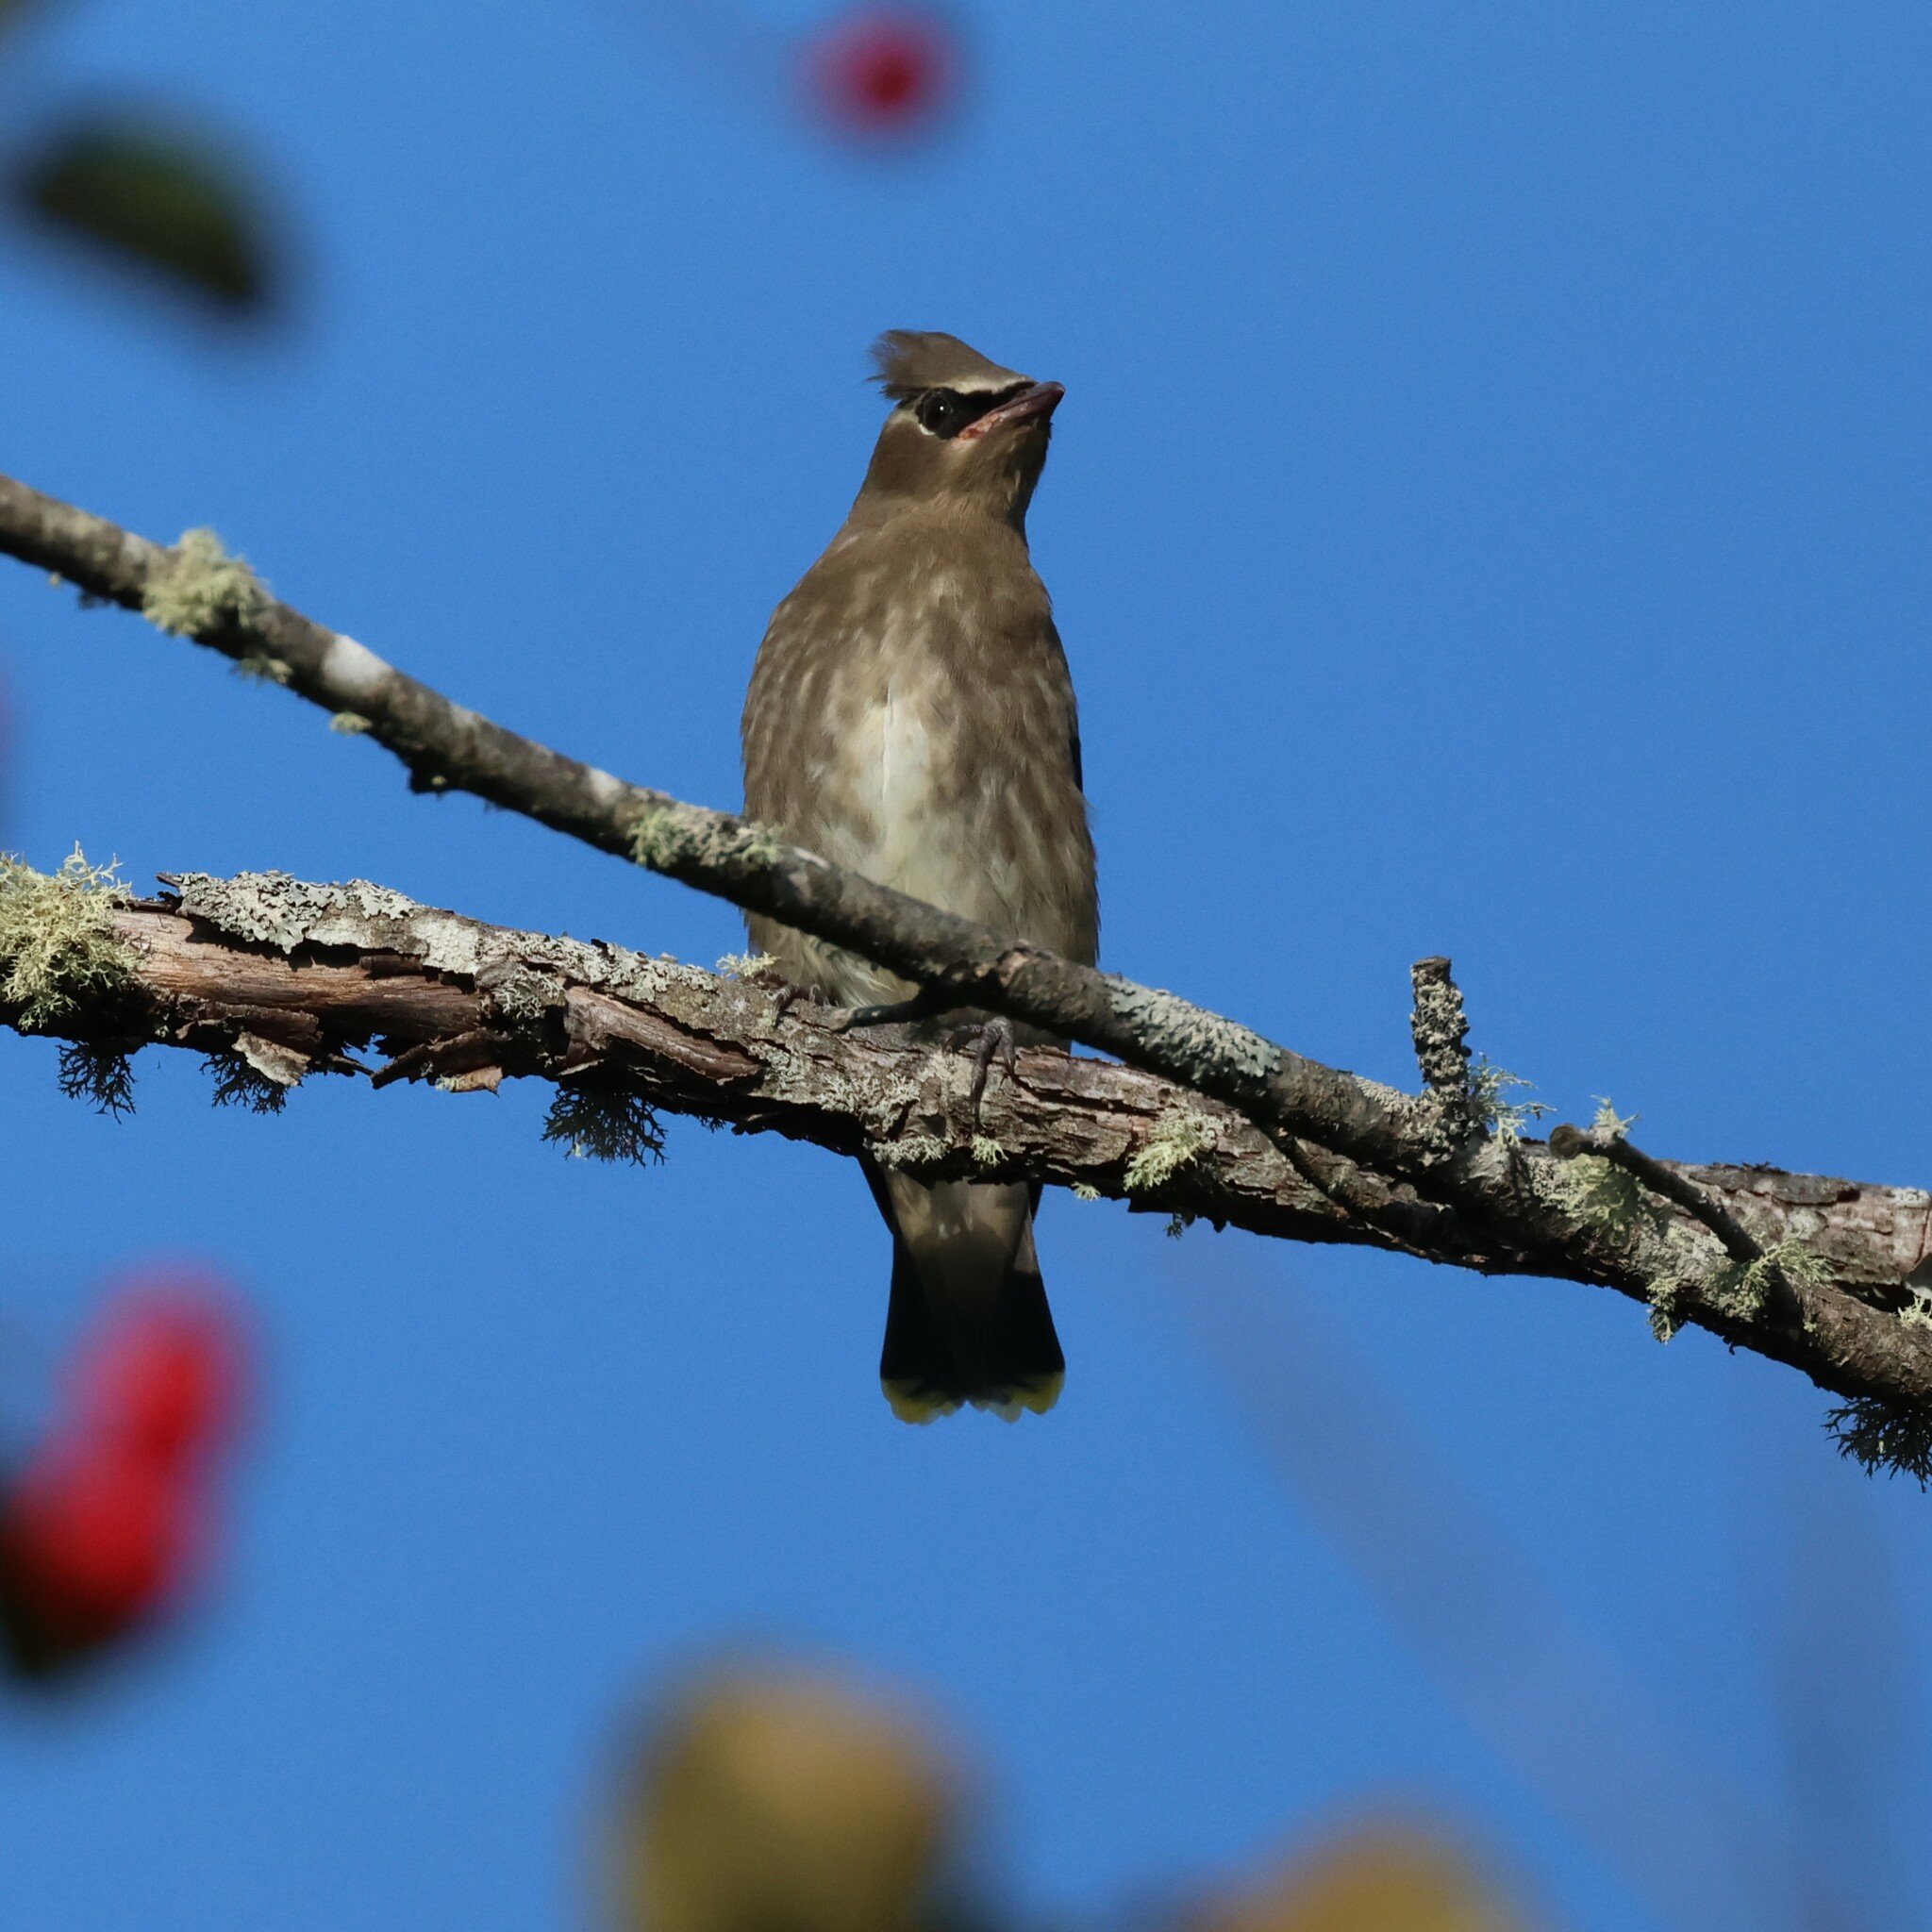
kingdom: Animalia
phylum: Chordata
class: Aves
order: Passeriformes
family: Bombycillidae
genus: Bombycilla
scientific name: Bombycilla cedrorum
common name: Cedar waxwing
